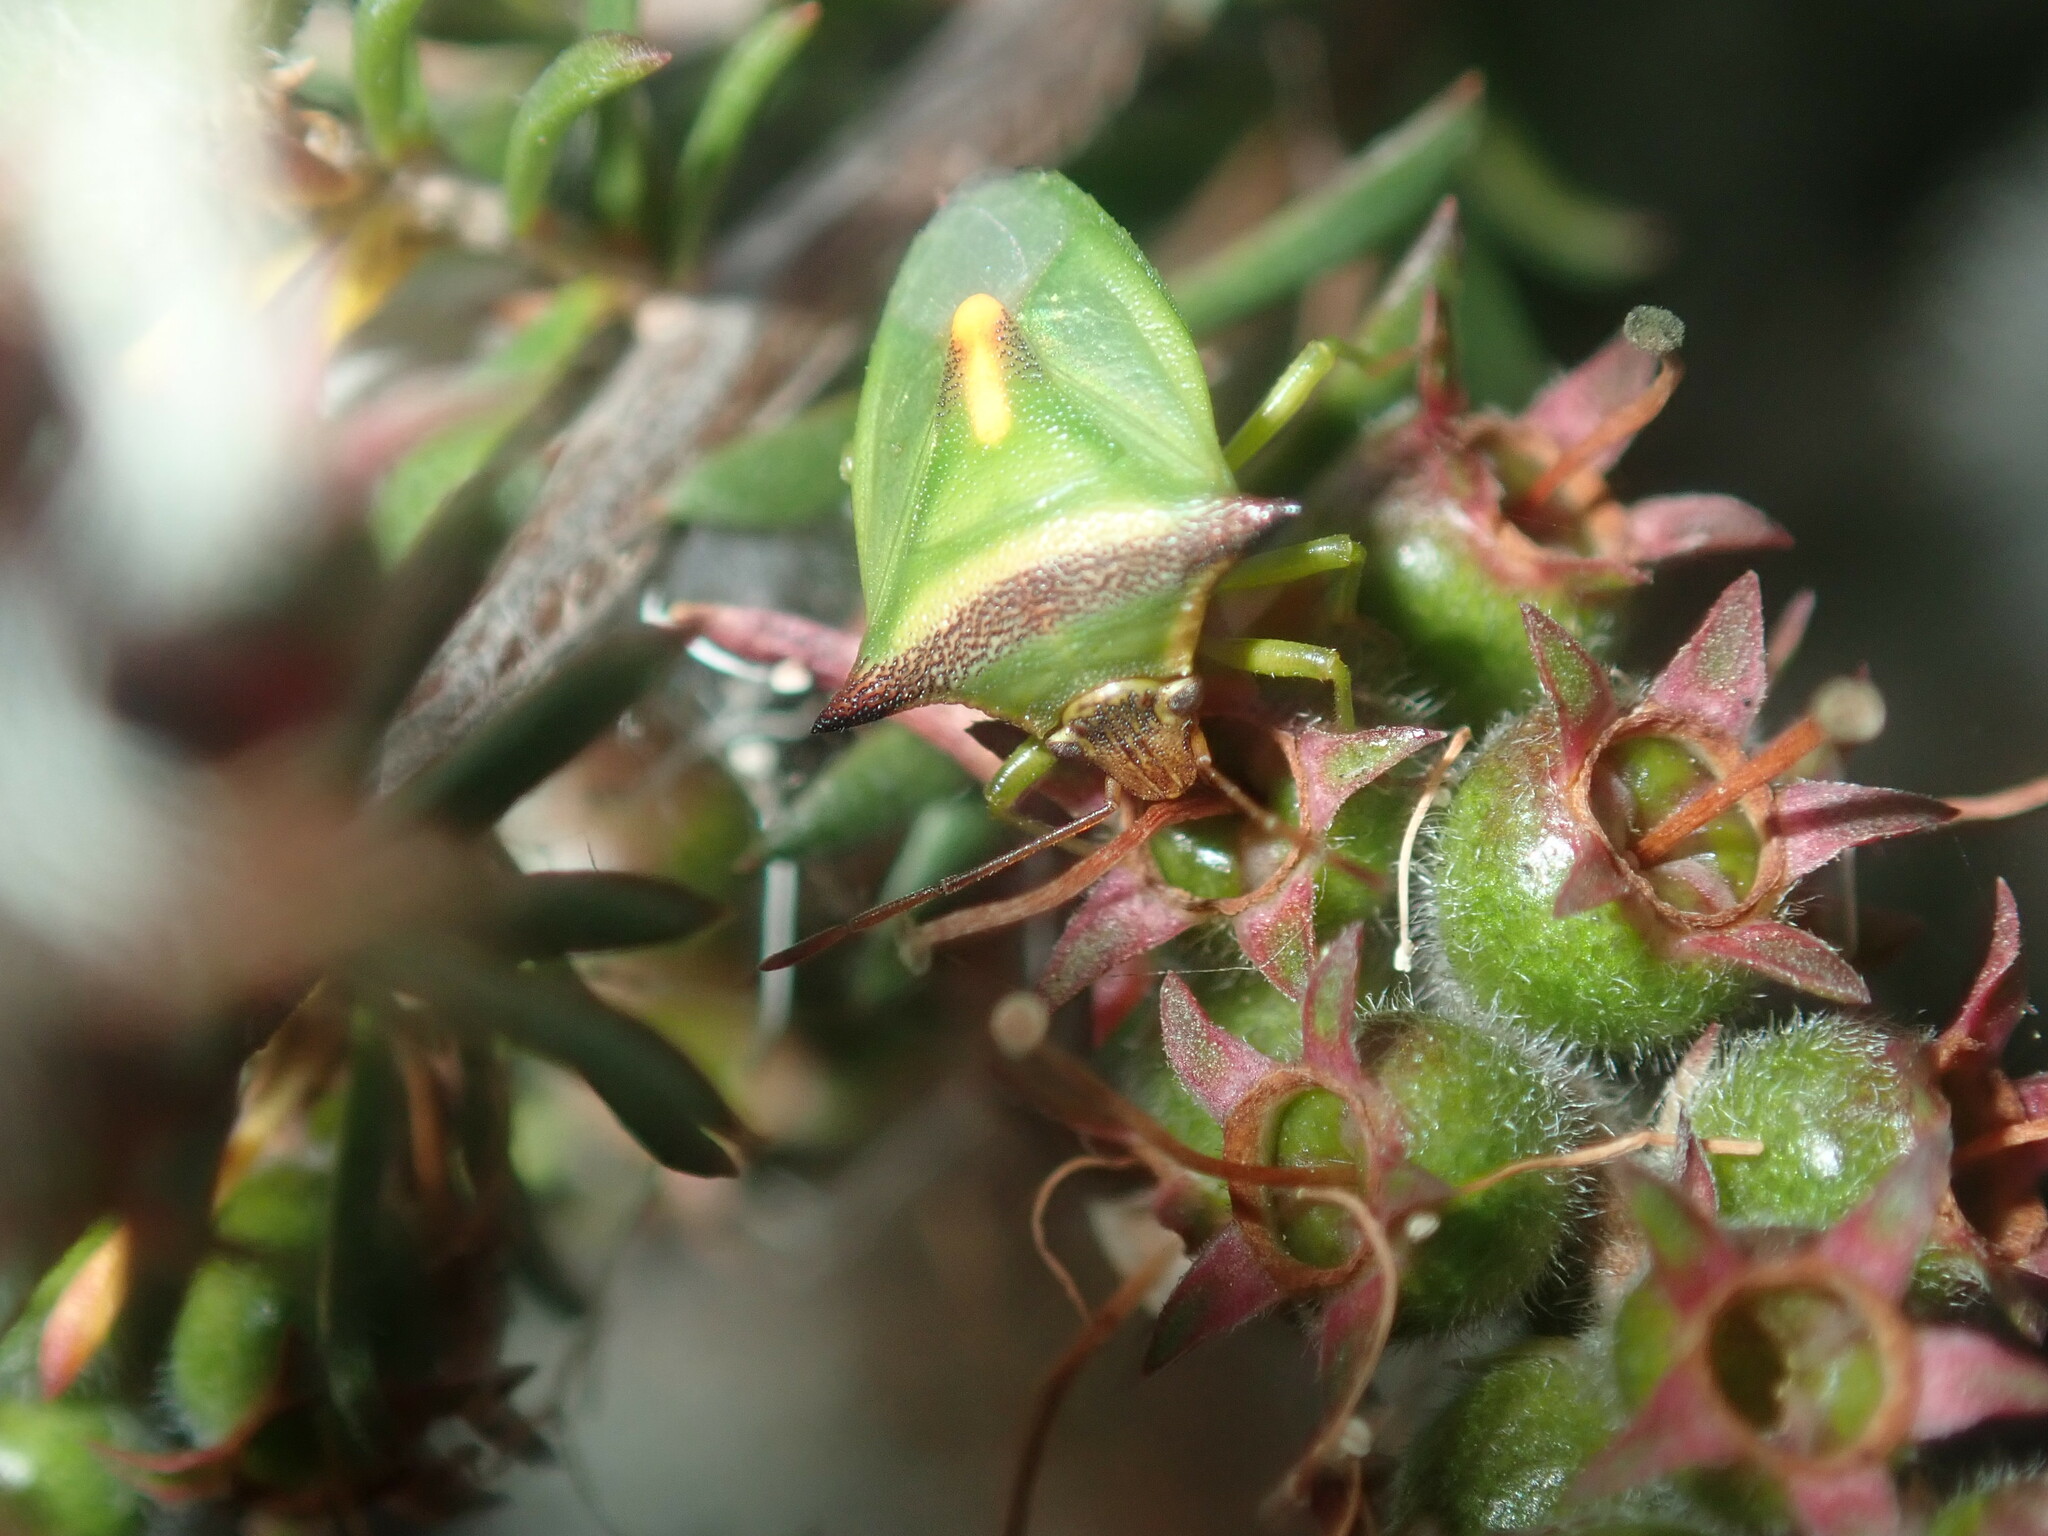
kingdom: Animalia
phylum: Arthropoda
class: Insecta
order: Hemiptera
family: Pentatomidae
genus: Cuspicona
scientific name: Cuspicona
